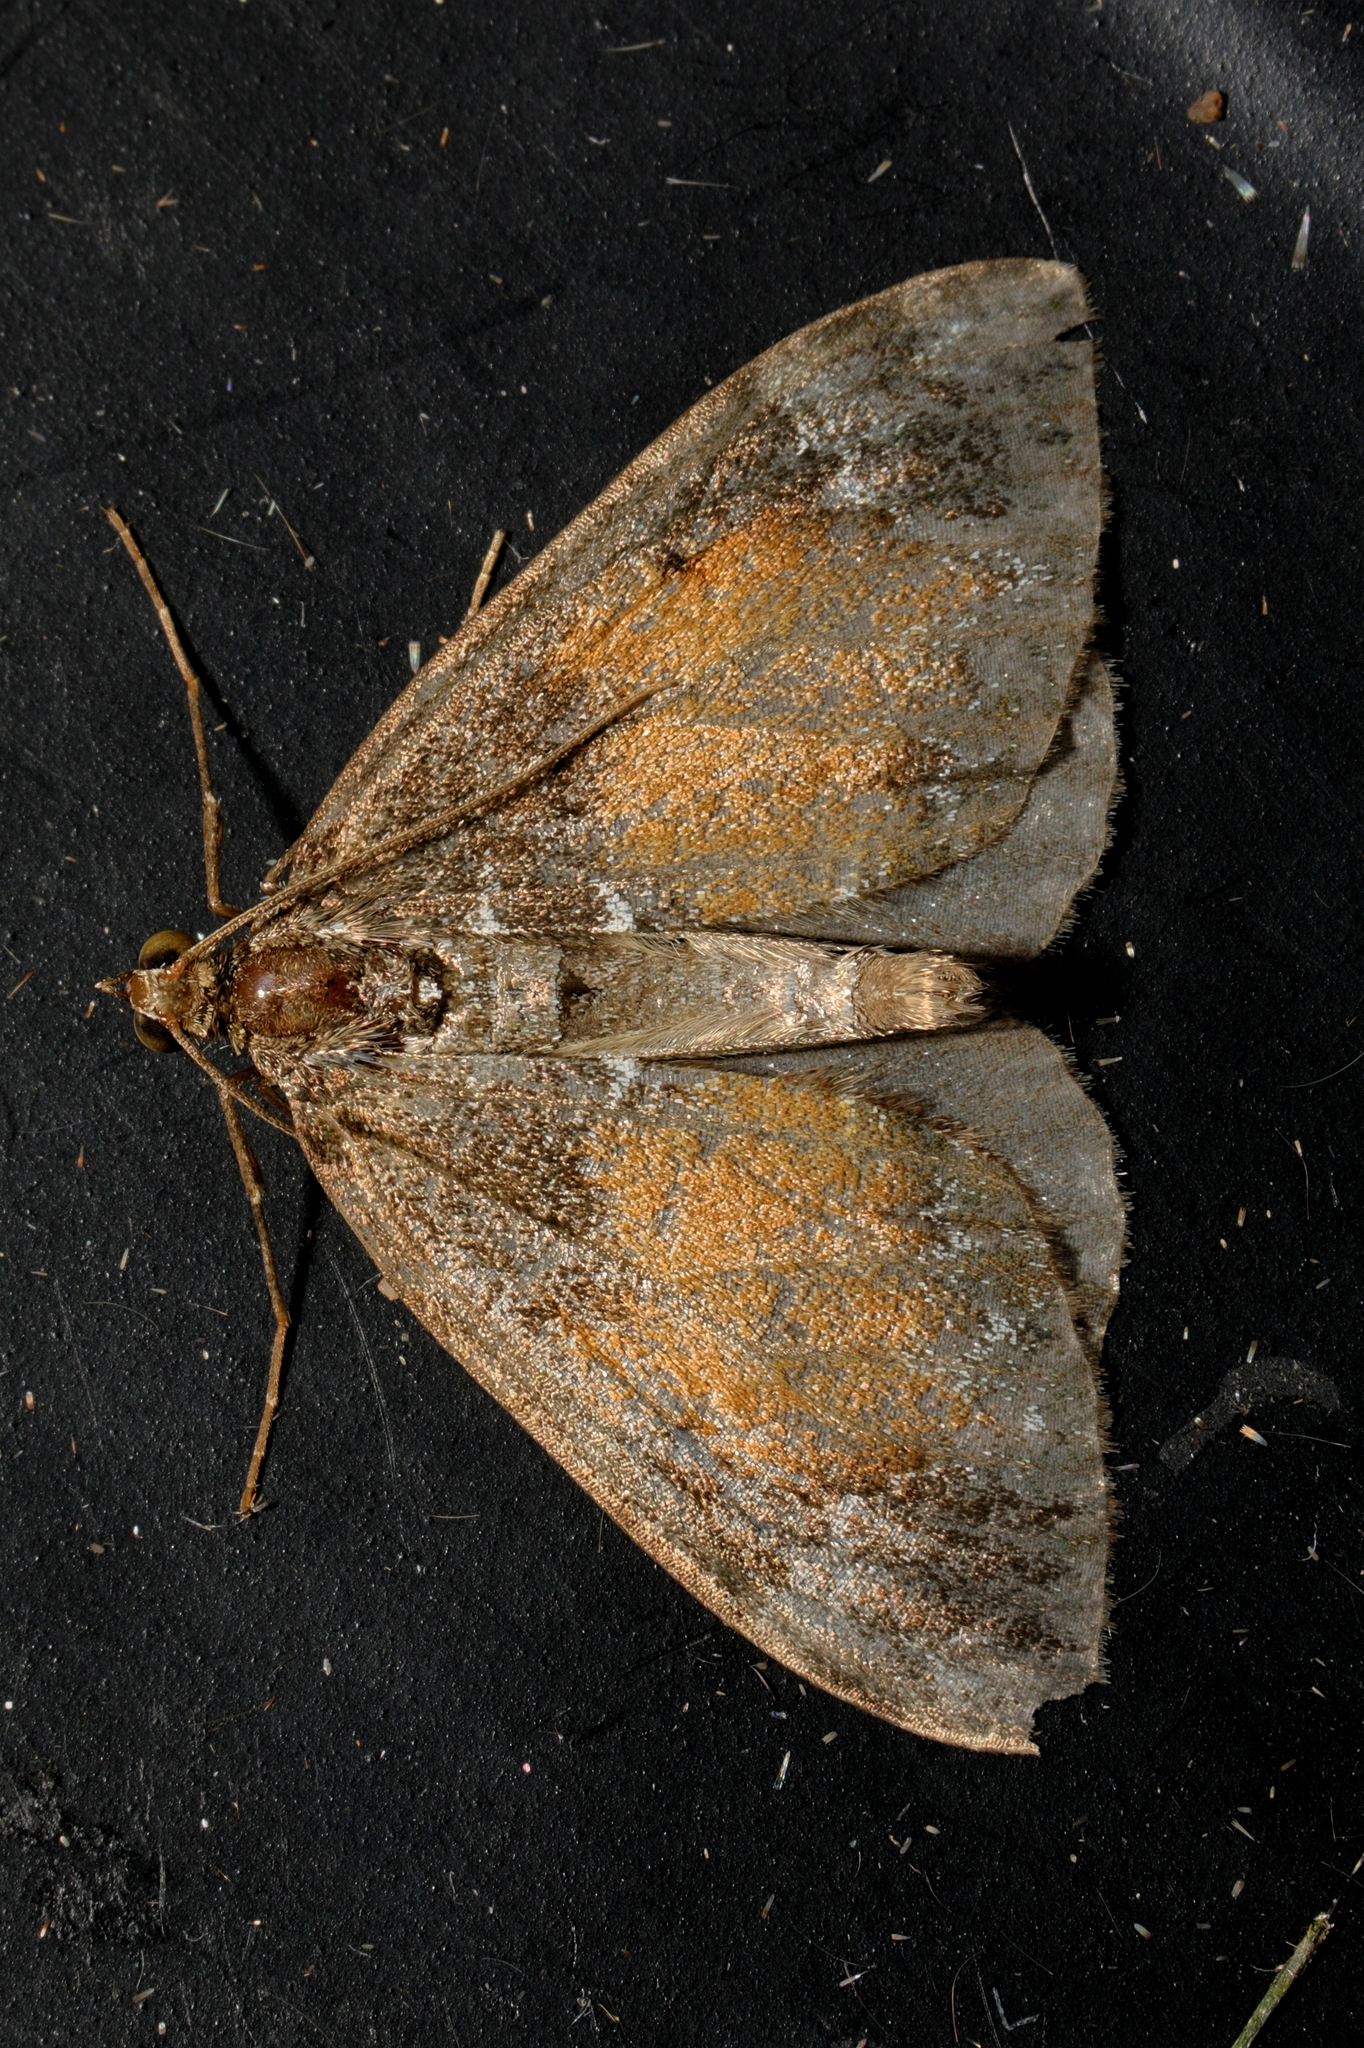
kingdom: Animalia
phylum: Arthropoda
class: Insecta
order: Lepidoptera
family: Geometridae
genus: Dysstroma
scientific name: Dysstroma truncata
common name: Common marbled carpet
